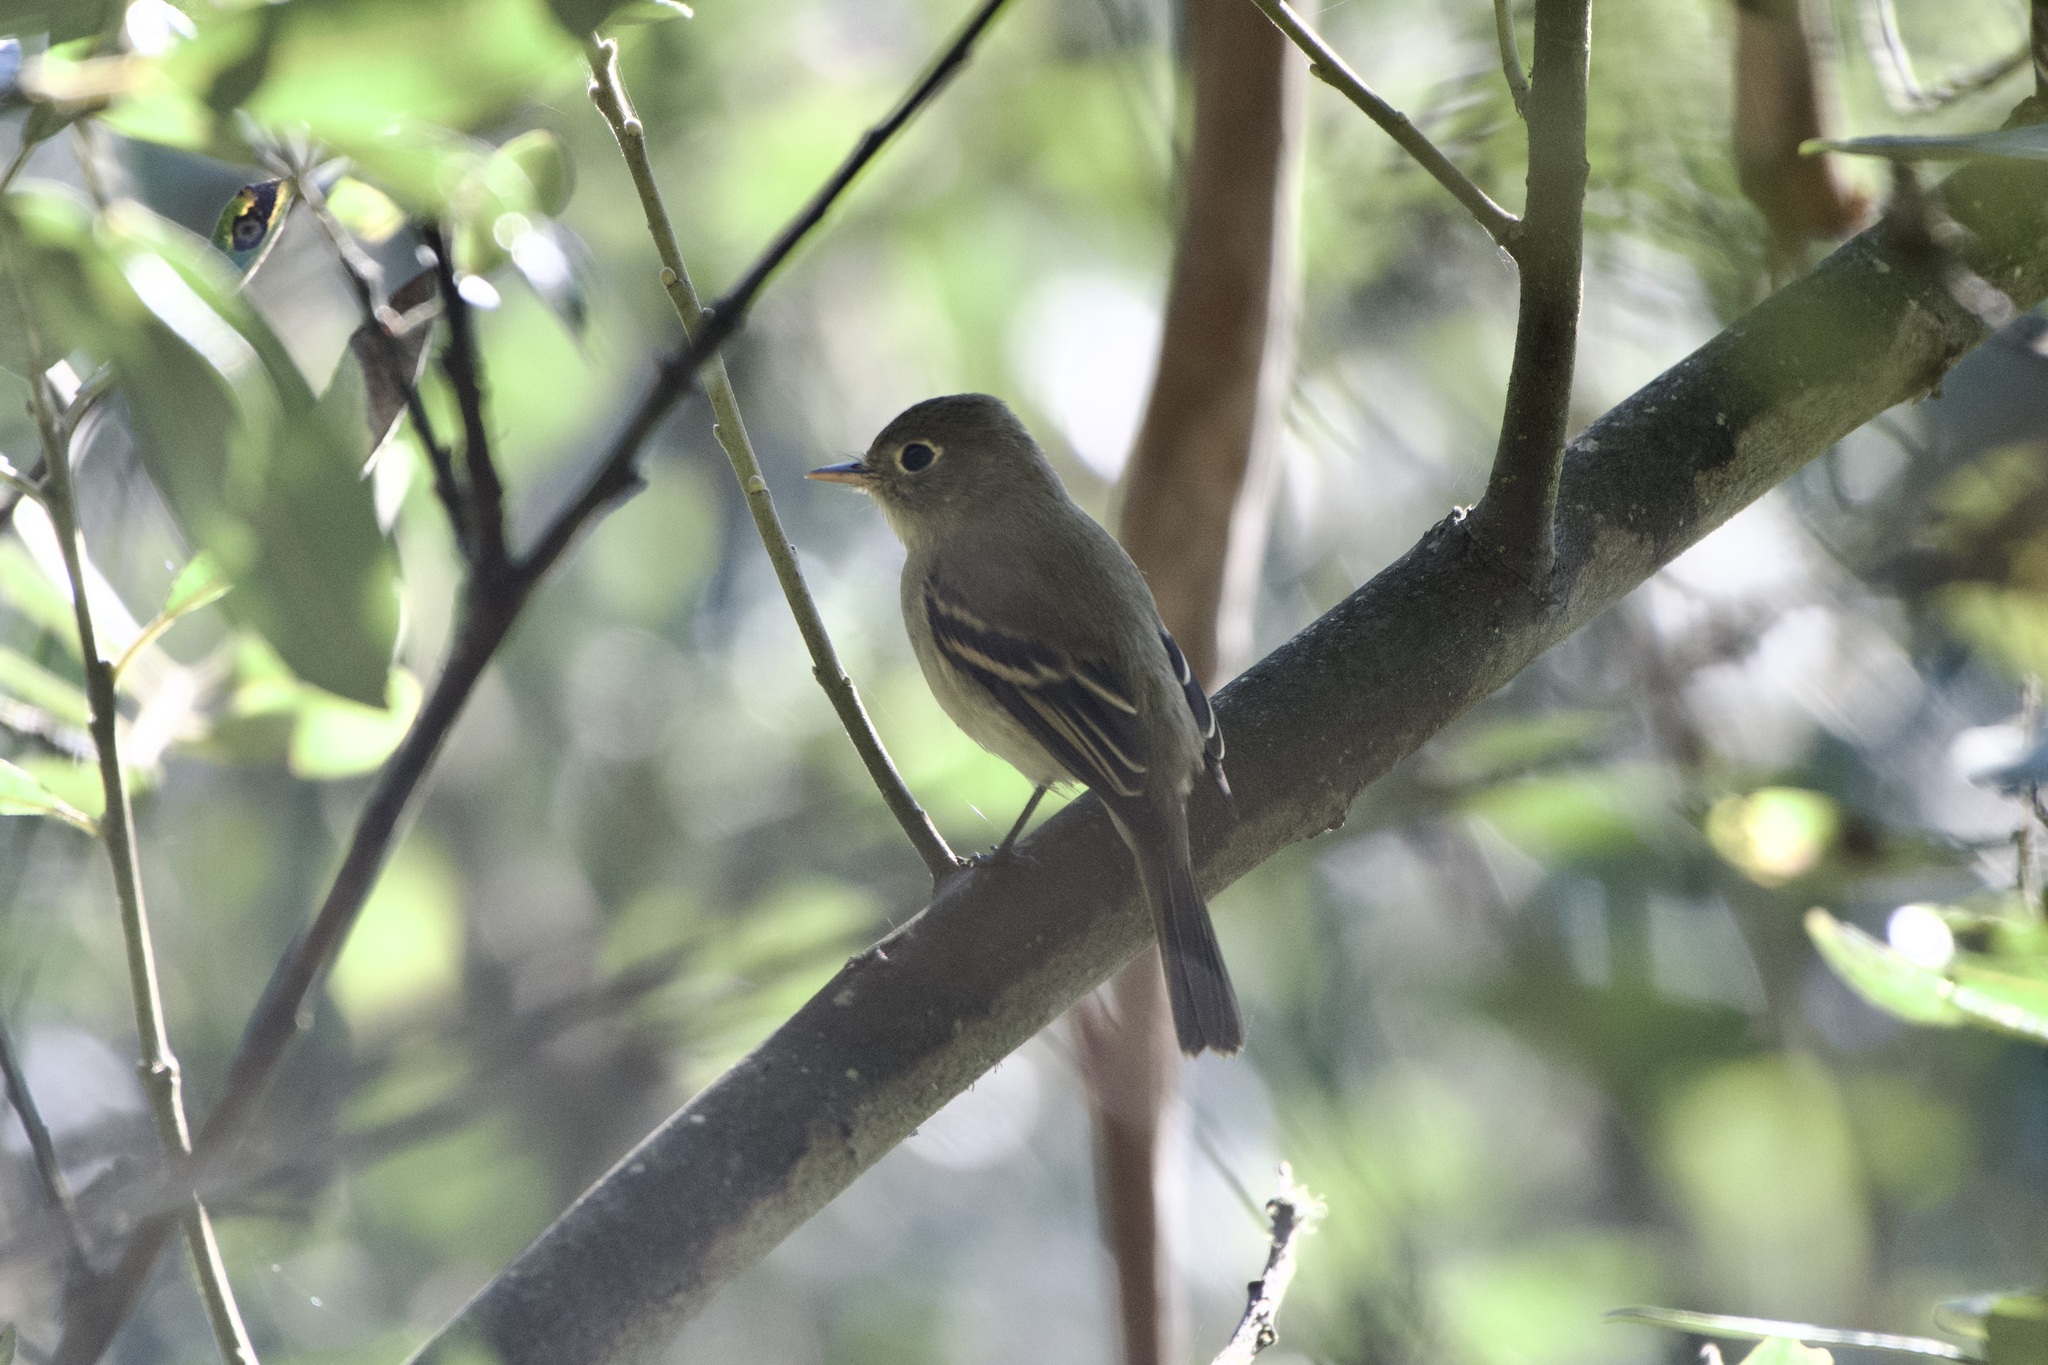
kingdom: Animalia
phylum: Chordata
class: Aves
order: Passeriformes
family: Tyrannidae
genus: Empidonax
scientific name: Empidonax difficilis
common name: Pacific-slope flycatcher
